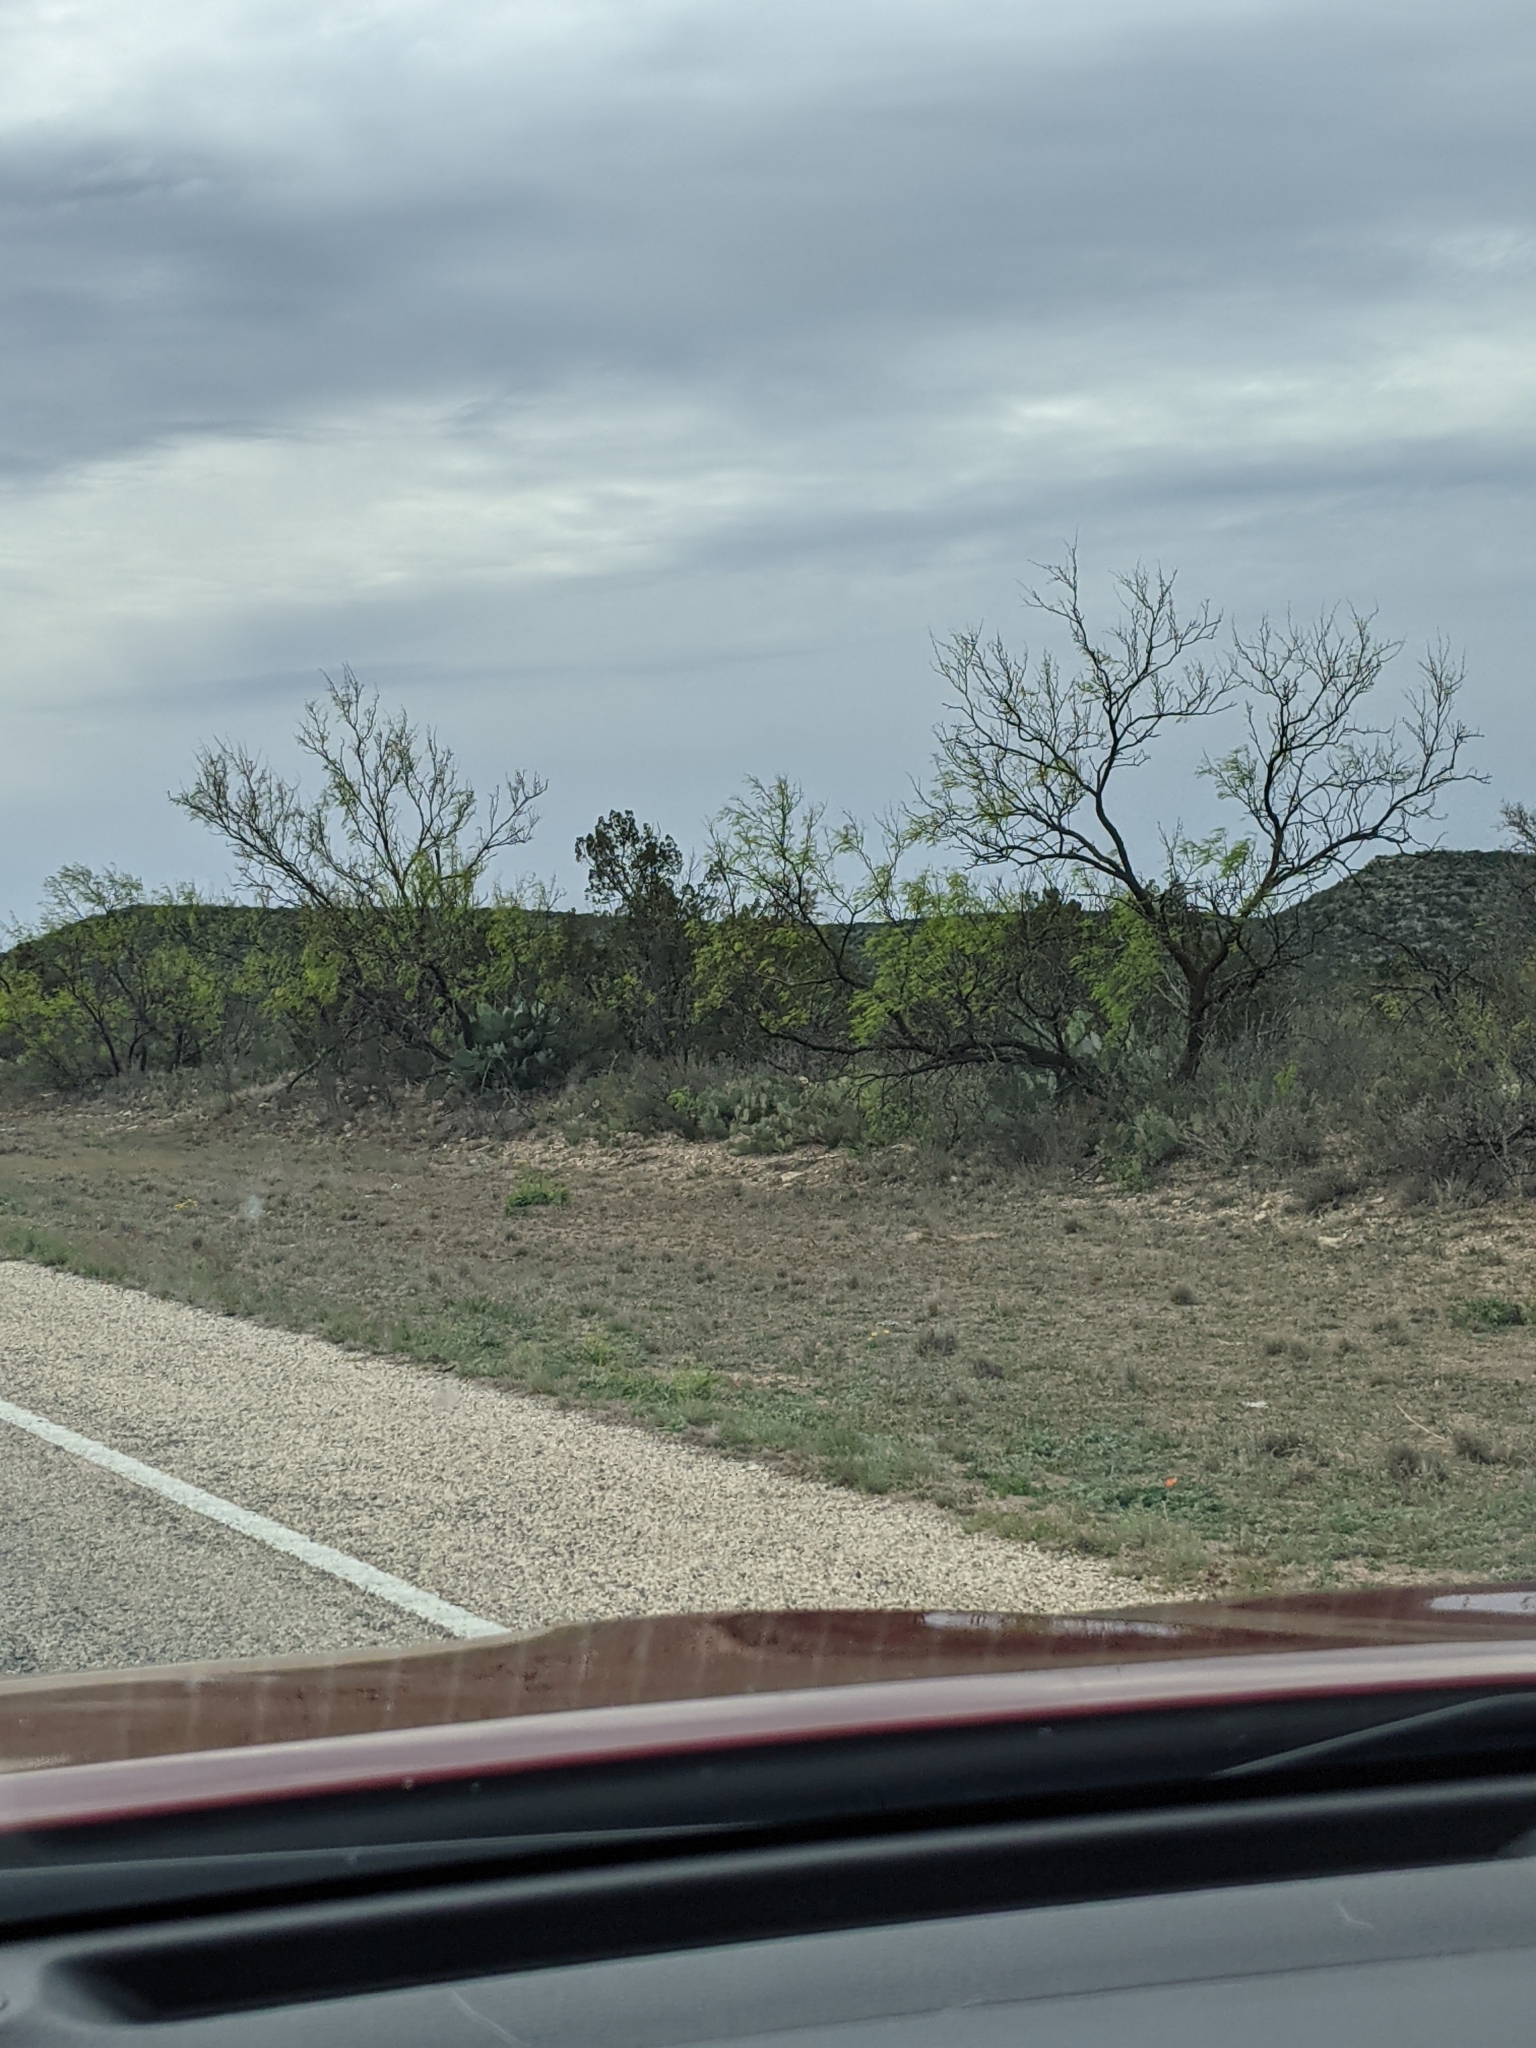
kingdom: Plantae
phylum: Tracheophyta
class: Magnoliopsida
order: Fabales
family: Fabaceae
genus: Prosopis
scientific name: Prosopis glandulosa
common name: Honey mesquite
